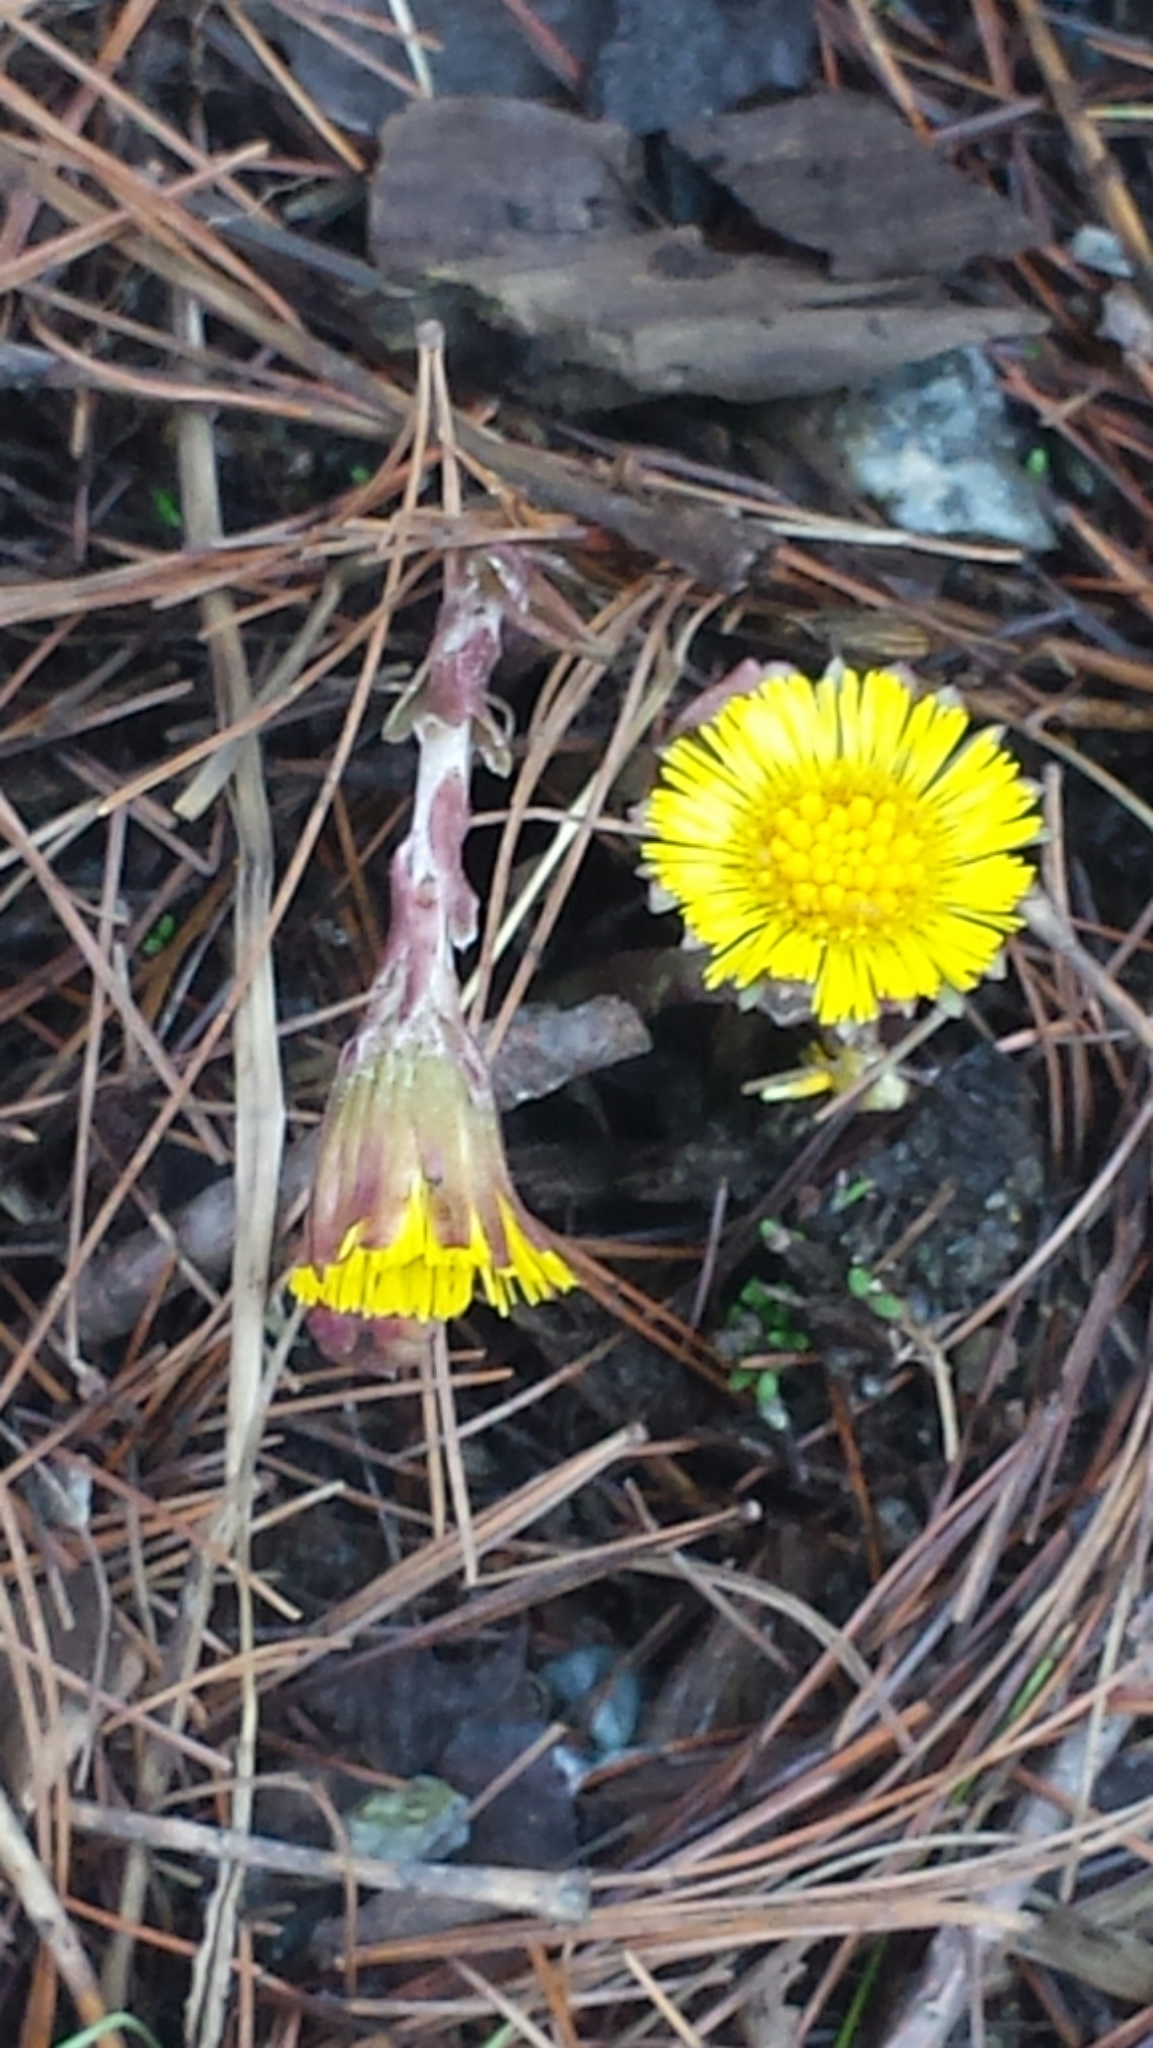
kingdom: Plantae
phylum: Tracheophyta
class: Magnoliopsida
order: Asterales
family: Asteraceae
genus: Tussilago
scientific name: Tussilago farfara
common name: Coltsfoot
